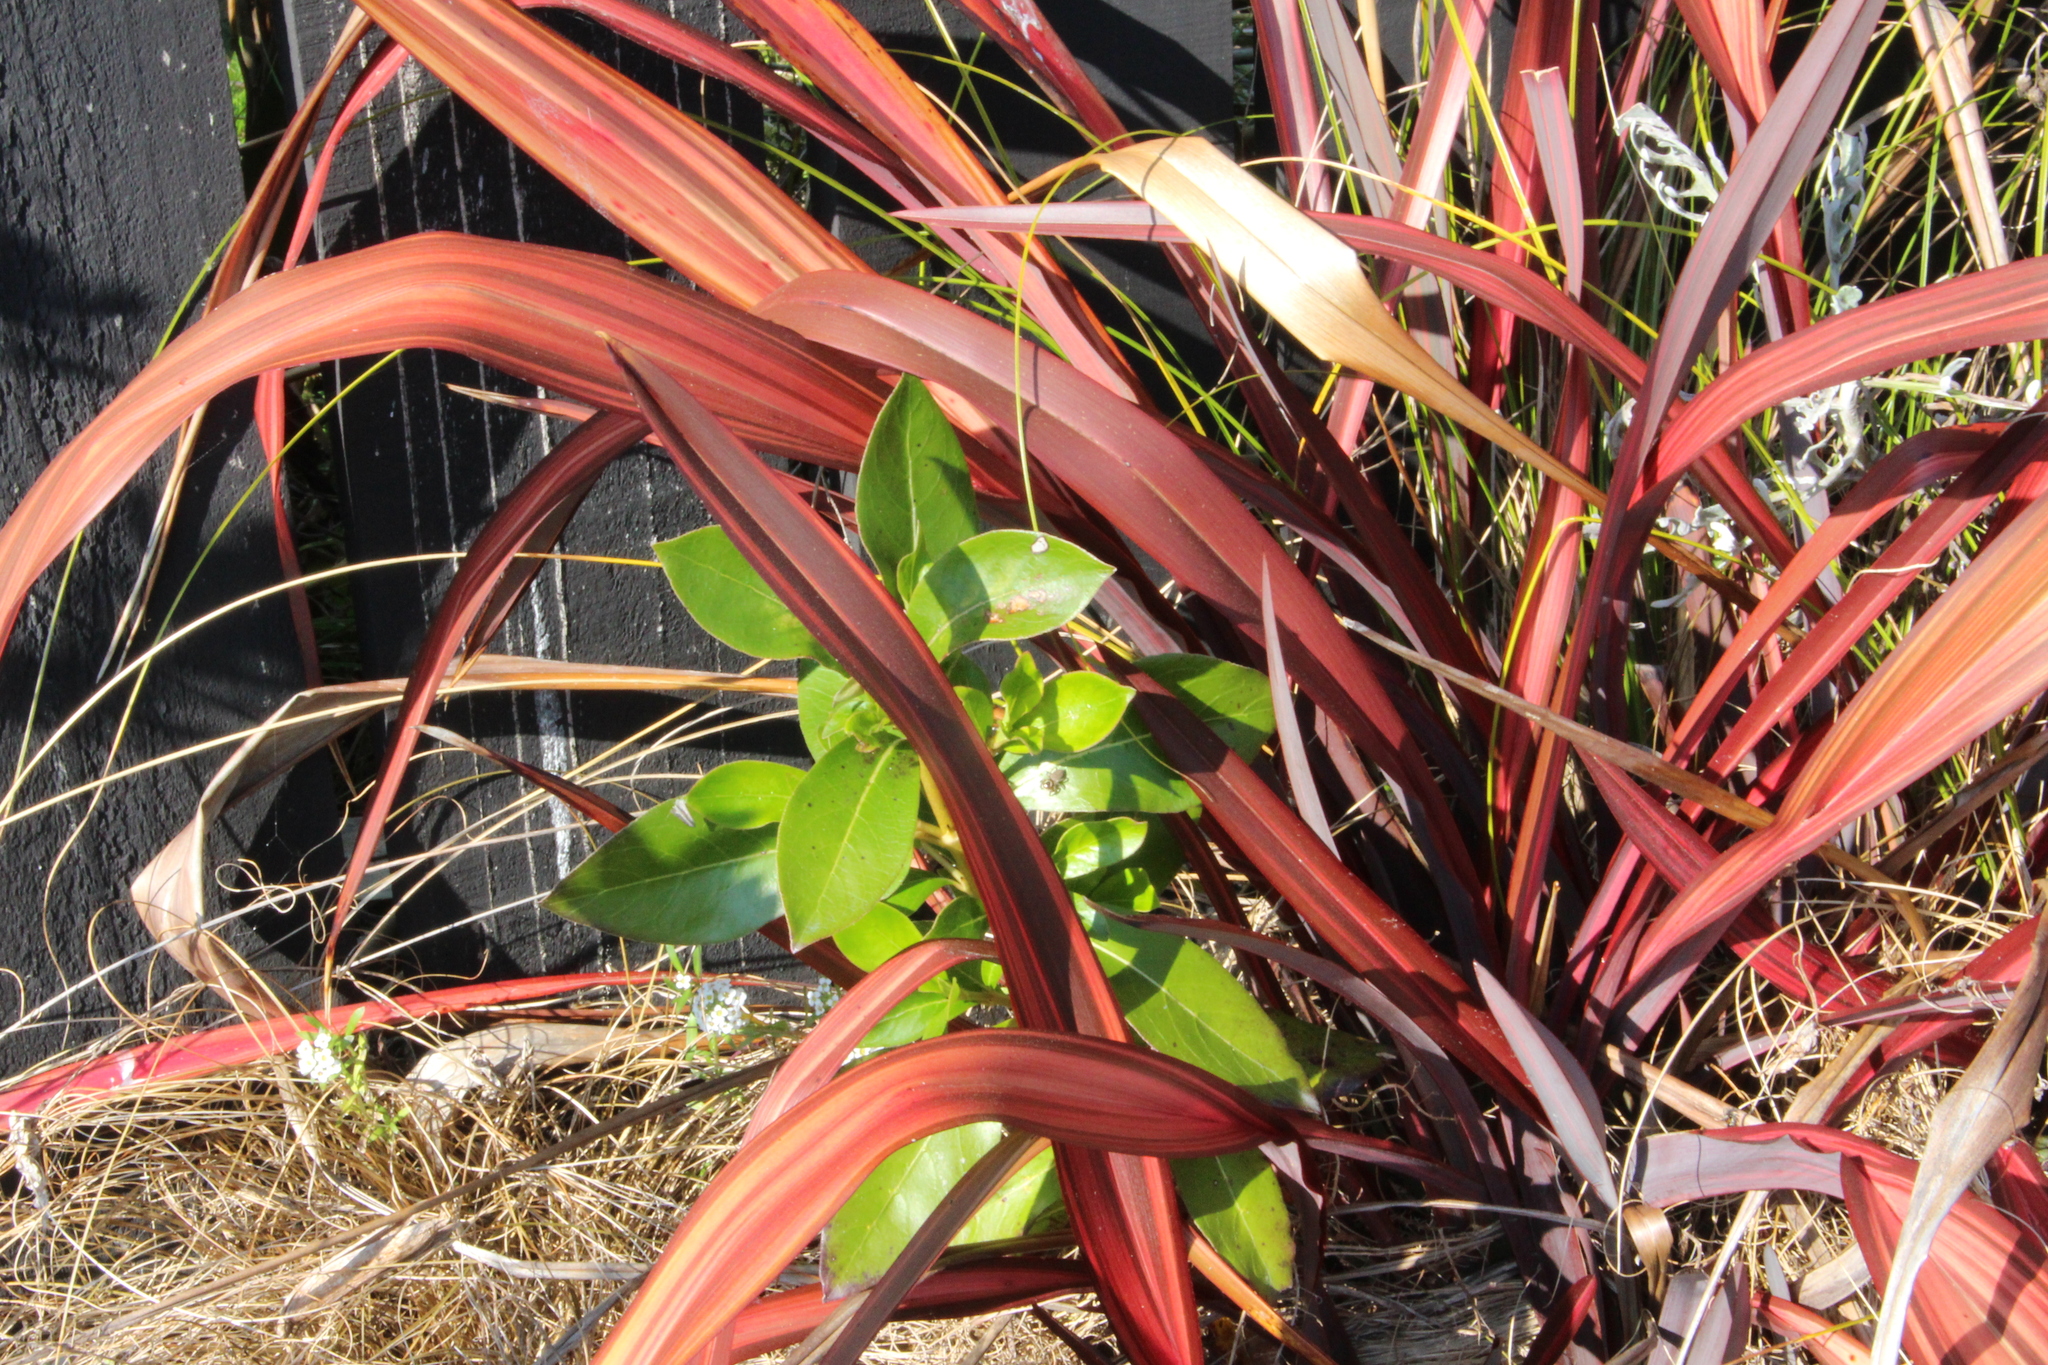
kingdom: Plantae
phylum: Tracheophyta
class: Magnoliopsida
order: Gentianales
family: Rubiaceae
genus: Coprosma
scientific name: Coprosma robusta
